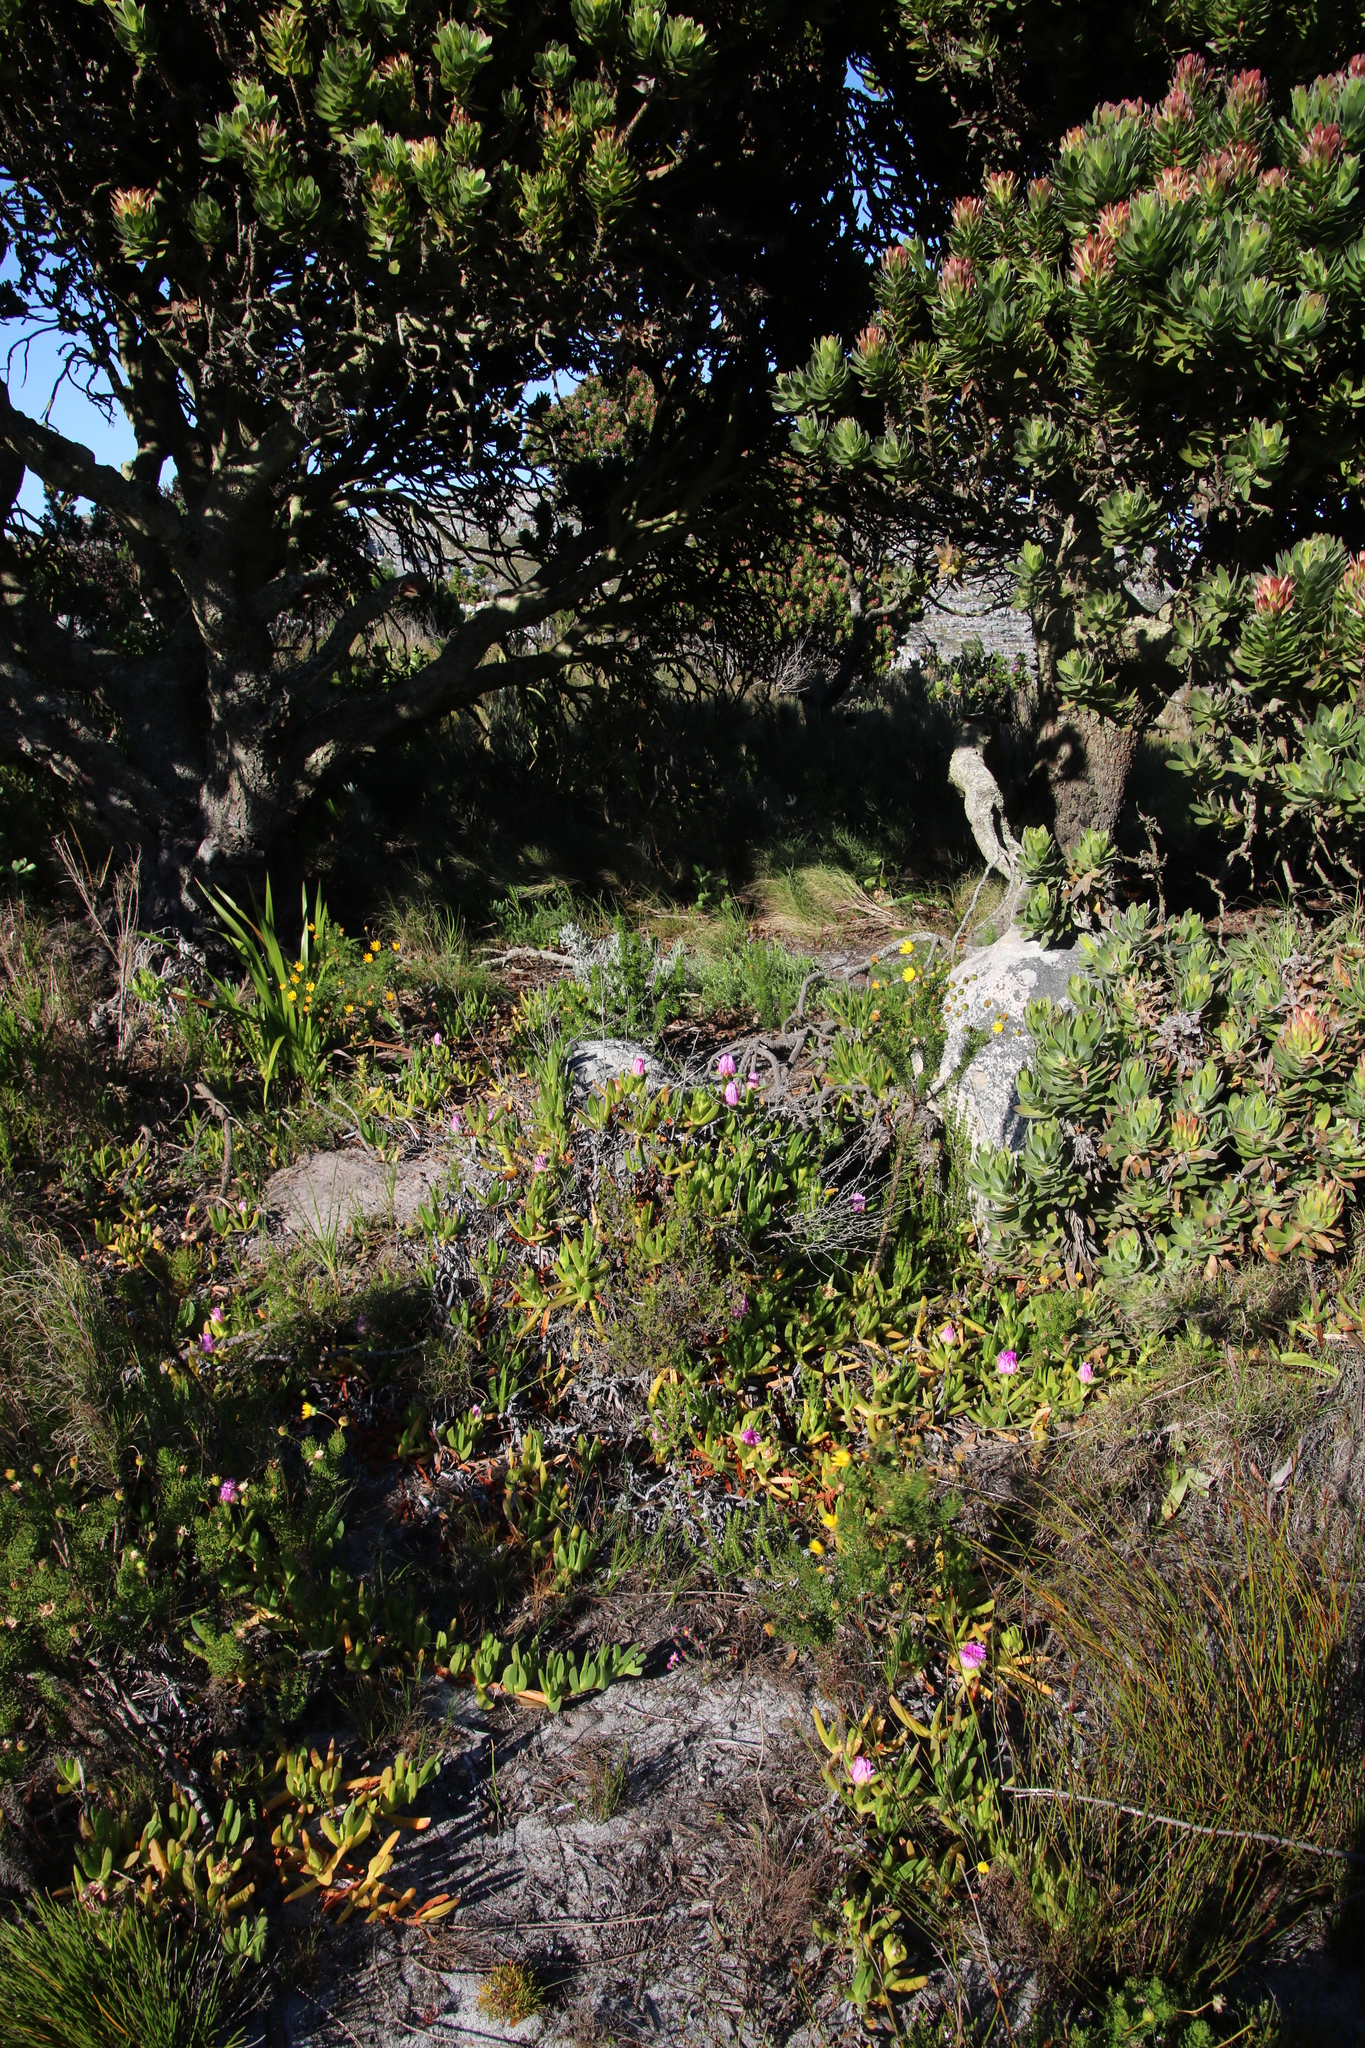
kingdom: Plantae
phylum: Tracheophyta
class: Magnoliopsida
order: Caryophyllales
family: Aizoaceae
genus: Carpobrotus
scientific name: Carpobrotus acinaciformis
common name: Sally-my-handsome
